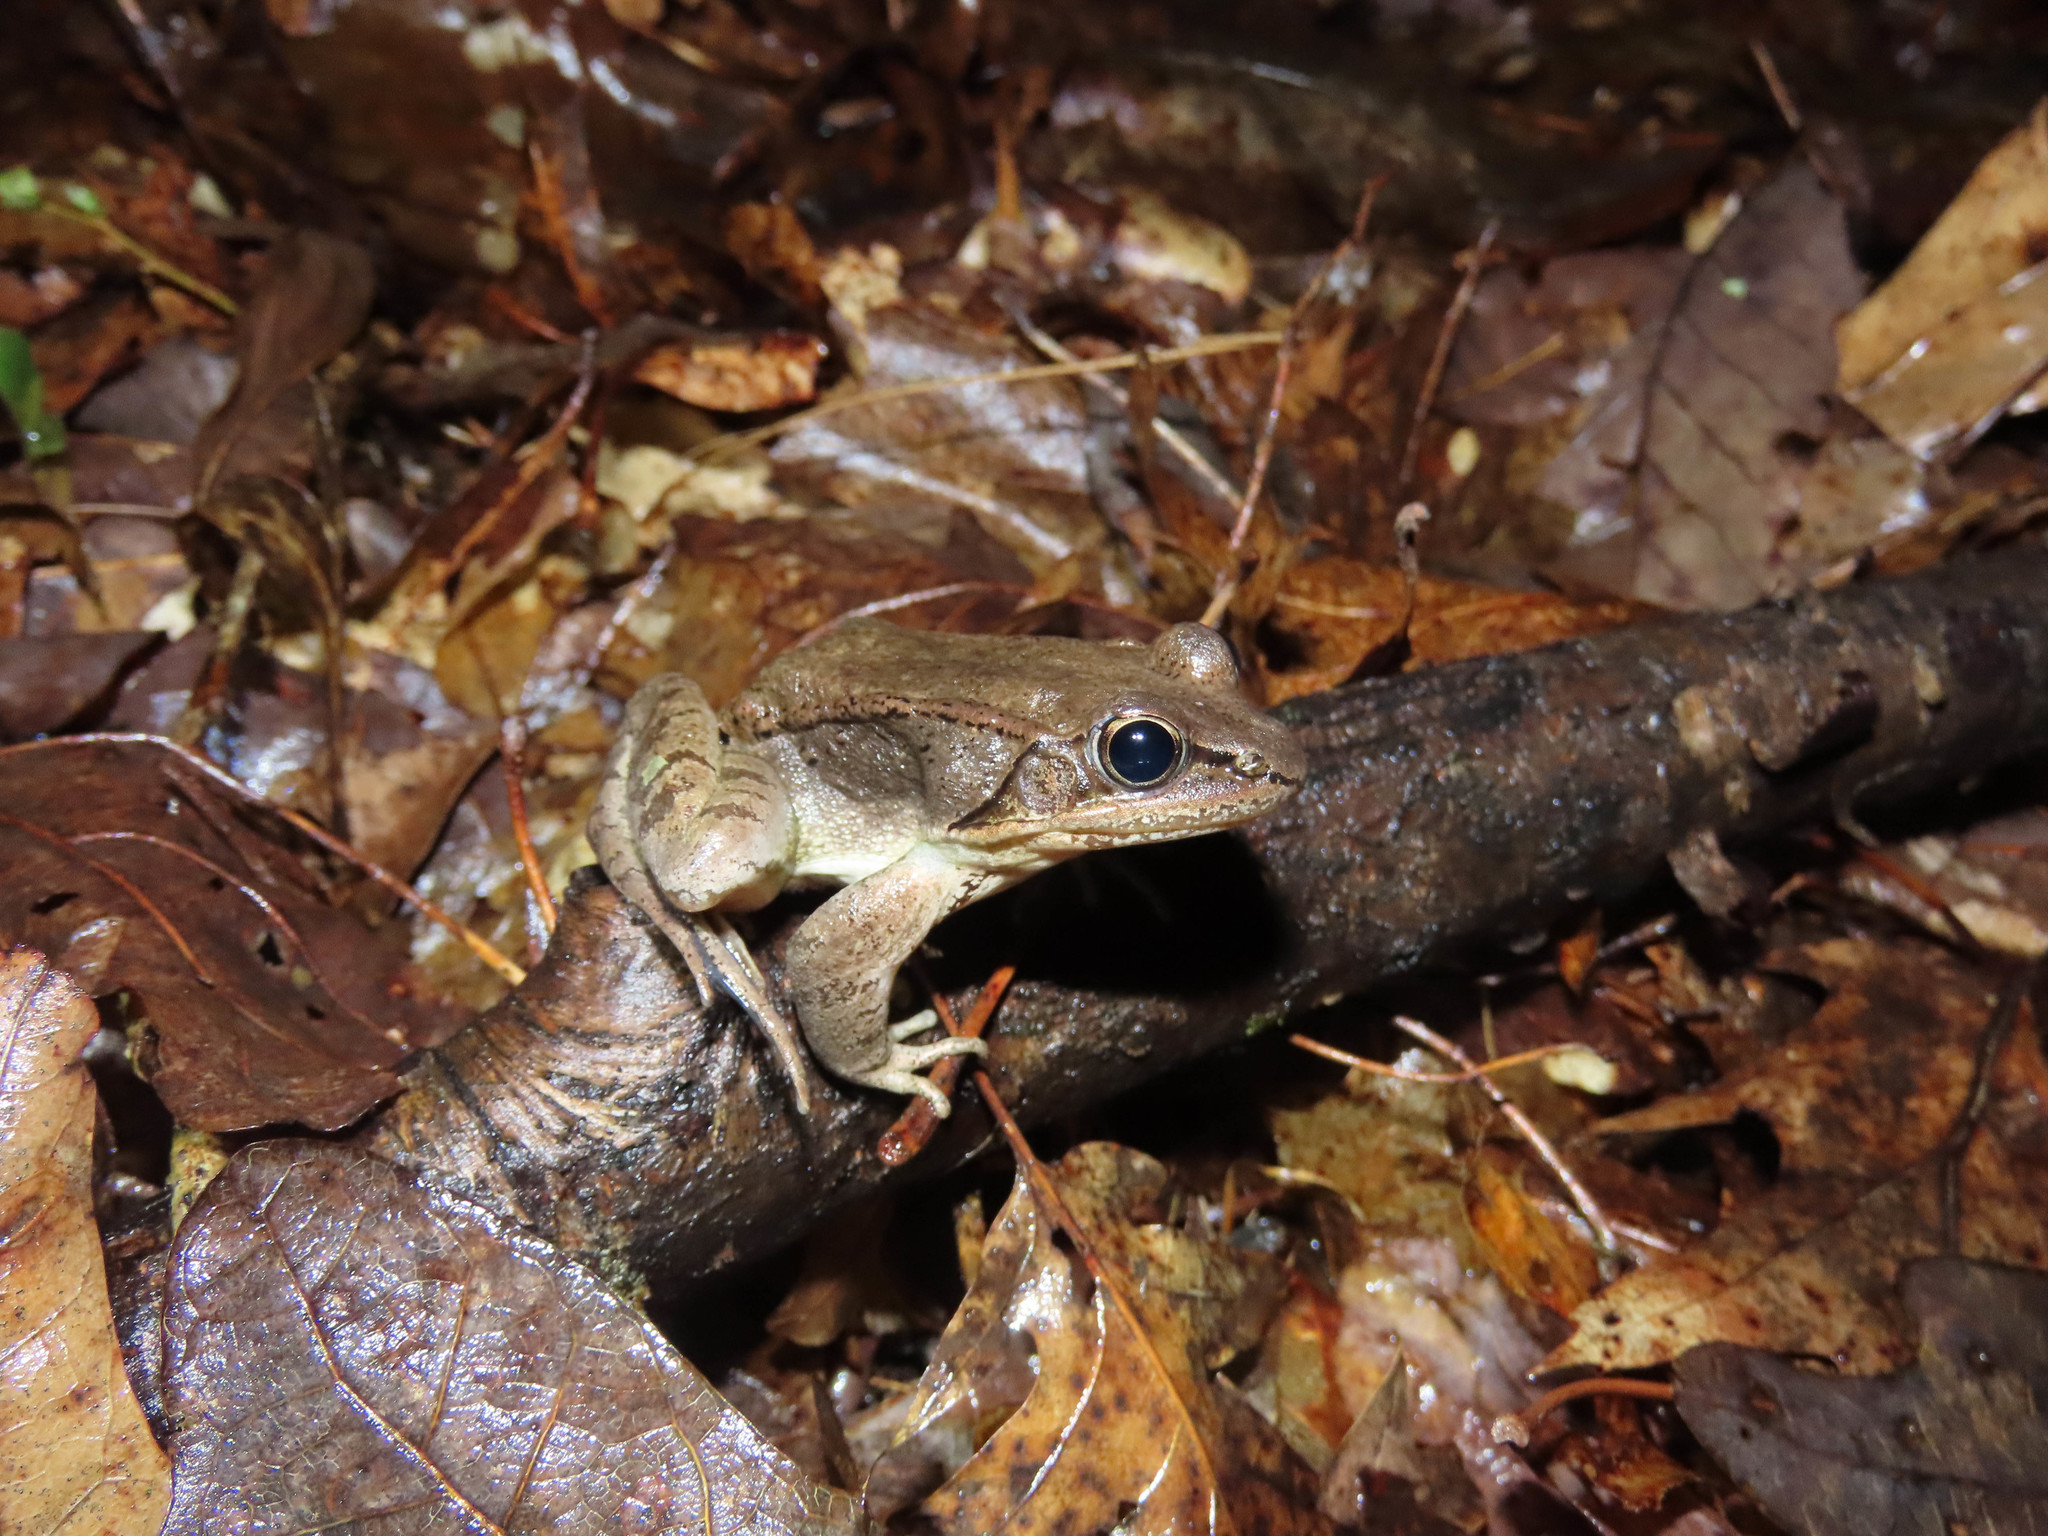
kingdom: Animalia
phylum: Chordata
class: Amphibia
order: Anura
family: Ranidae
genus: Lithobates
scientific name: Lithobates sylvaticus
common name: Wood frog
